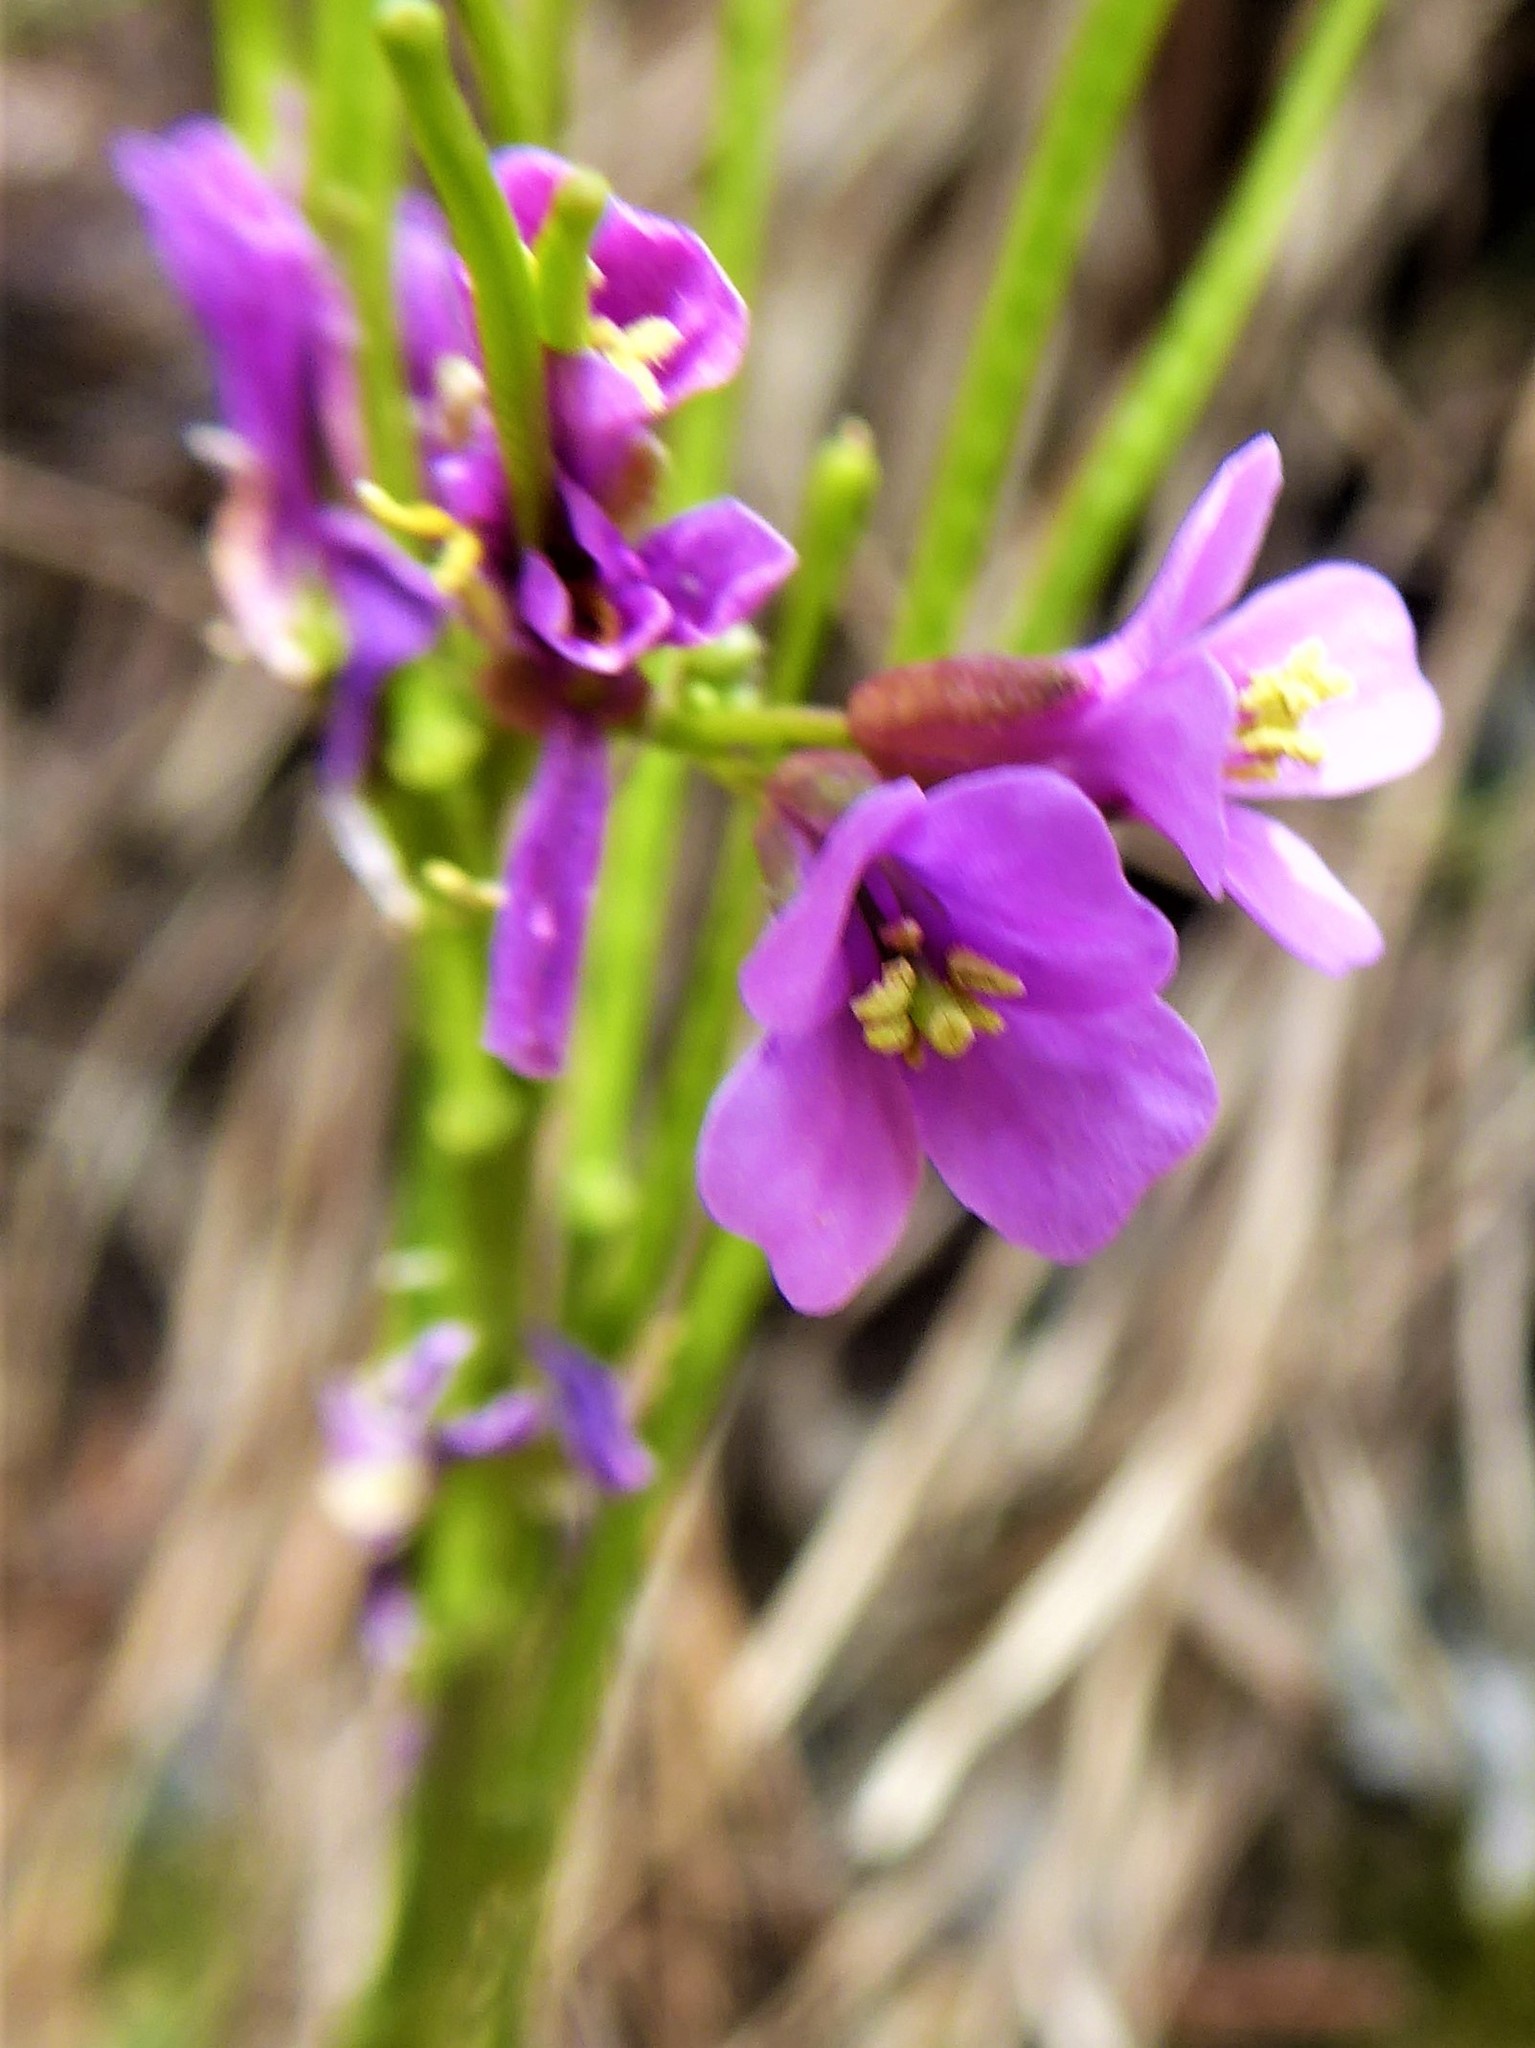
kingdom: Plantae
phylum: Tracheophyta
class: Magnoliopsida
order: Brassicales
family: Brassicaceae
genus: Arabis
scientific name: Arabis collina
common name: Rosy cress
